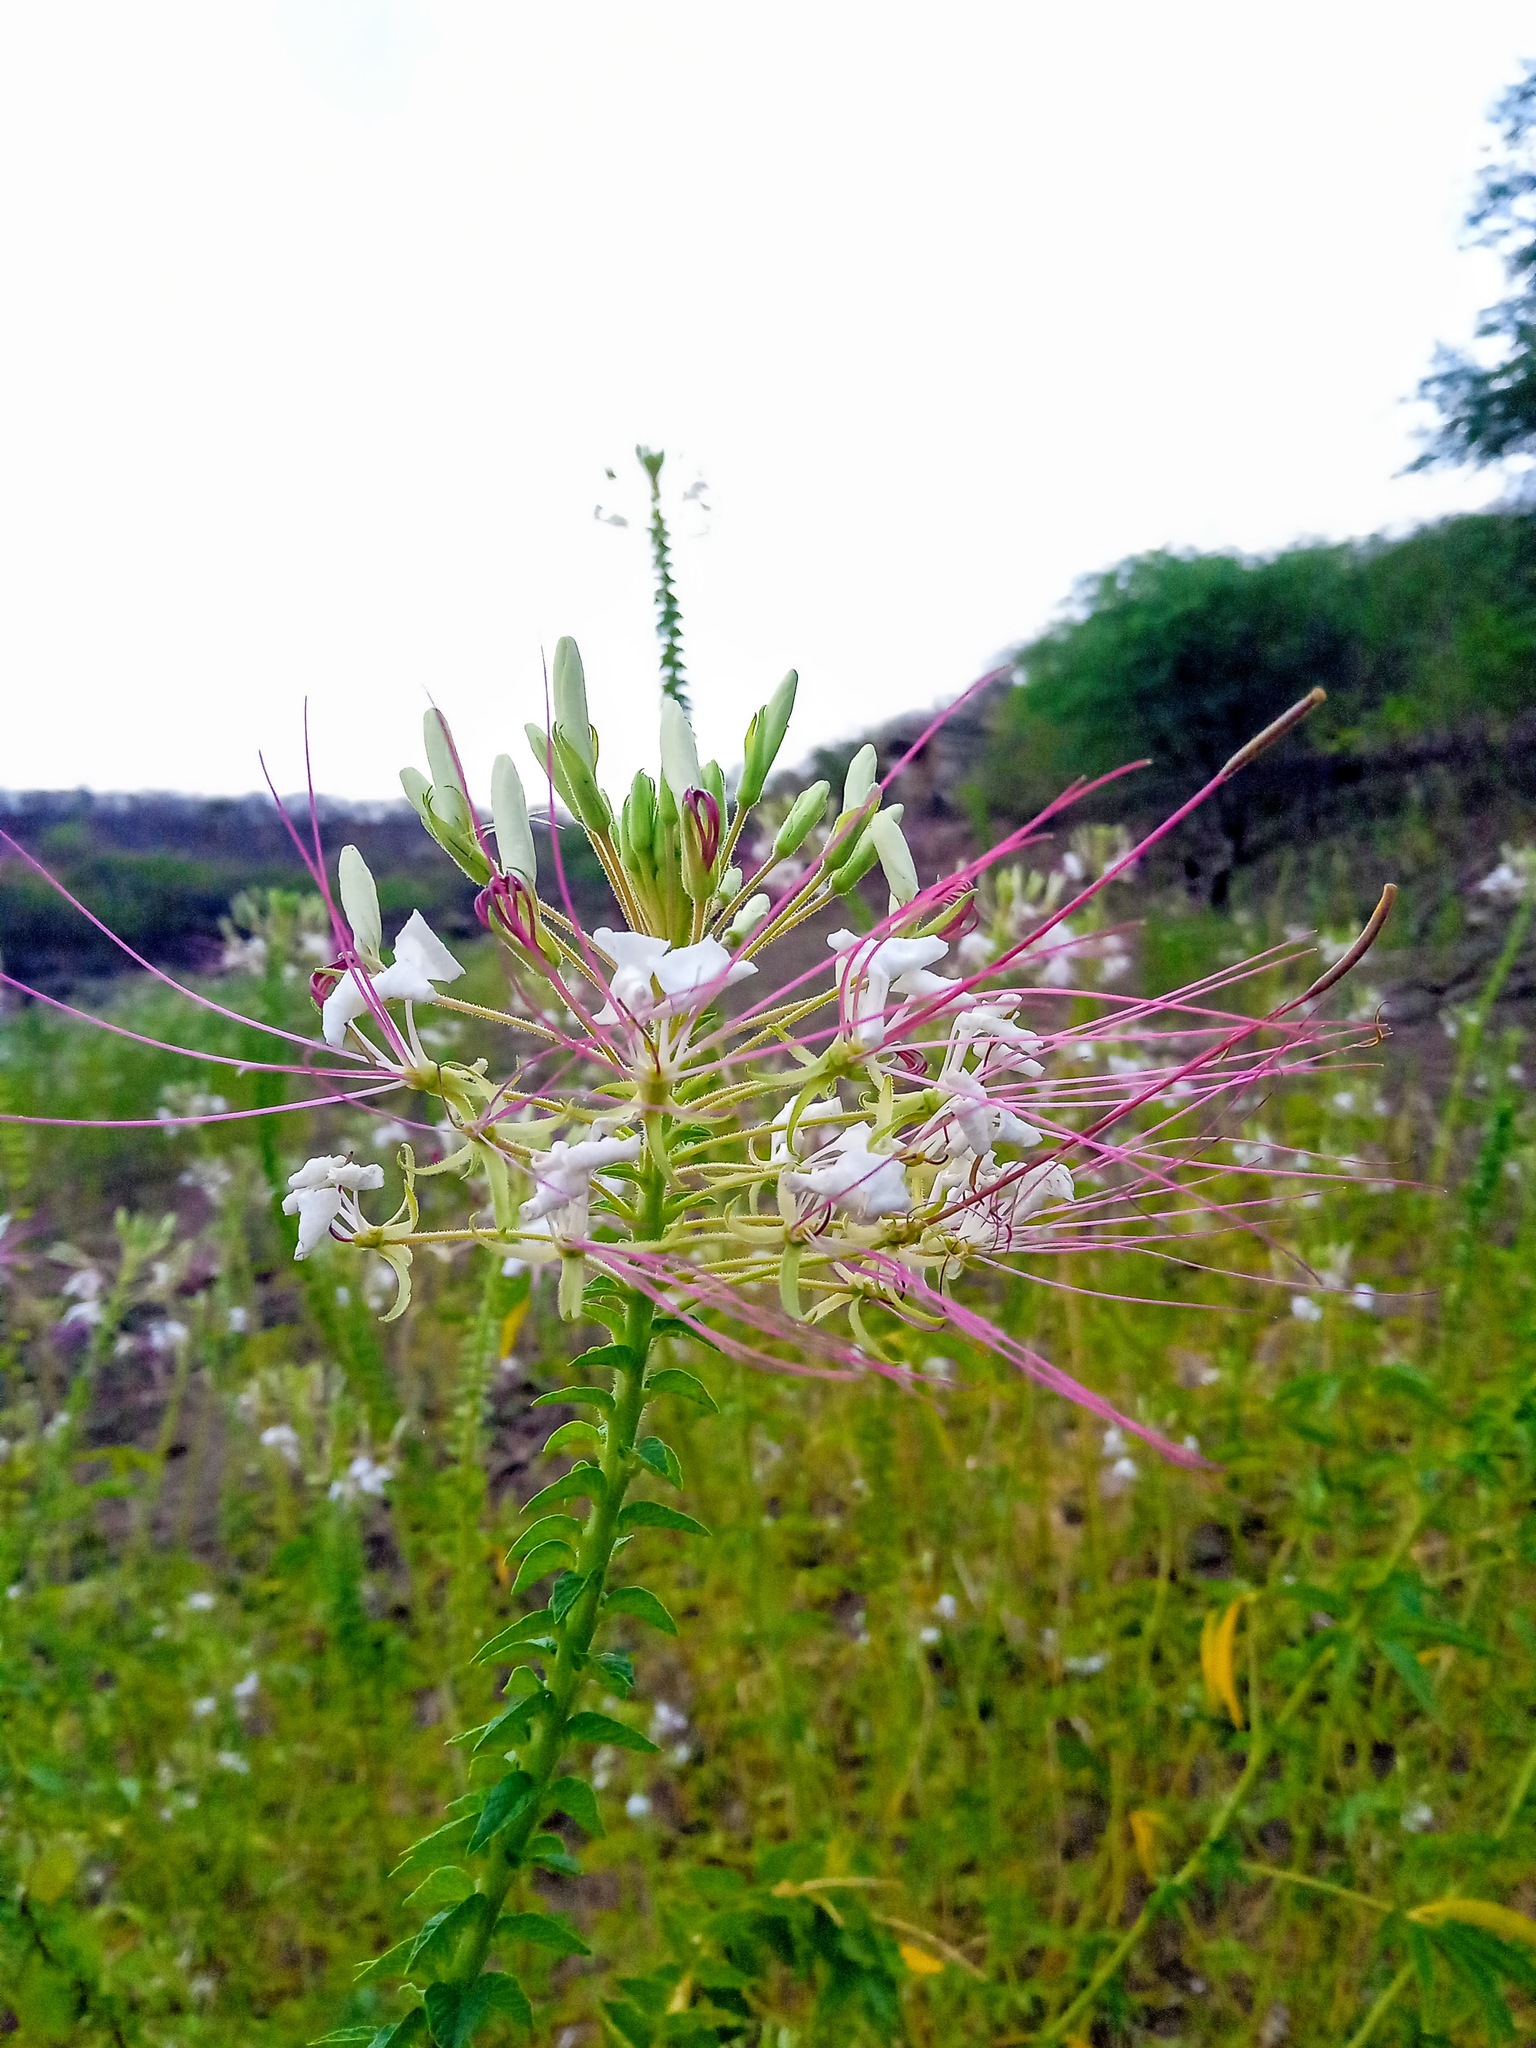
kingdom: Plantae
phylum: Tracheophyta
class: Magnoliopsida
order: Brassicales
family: Cleomaceae
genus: Tarenaya
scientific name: Tarenaya longicarpa
